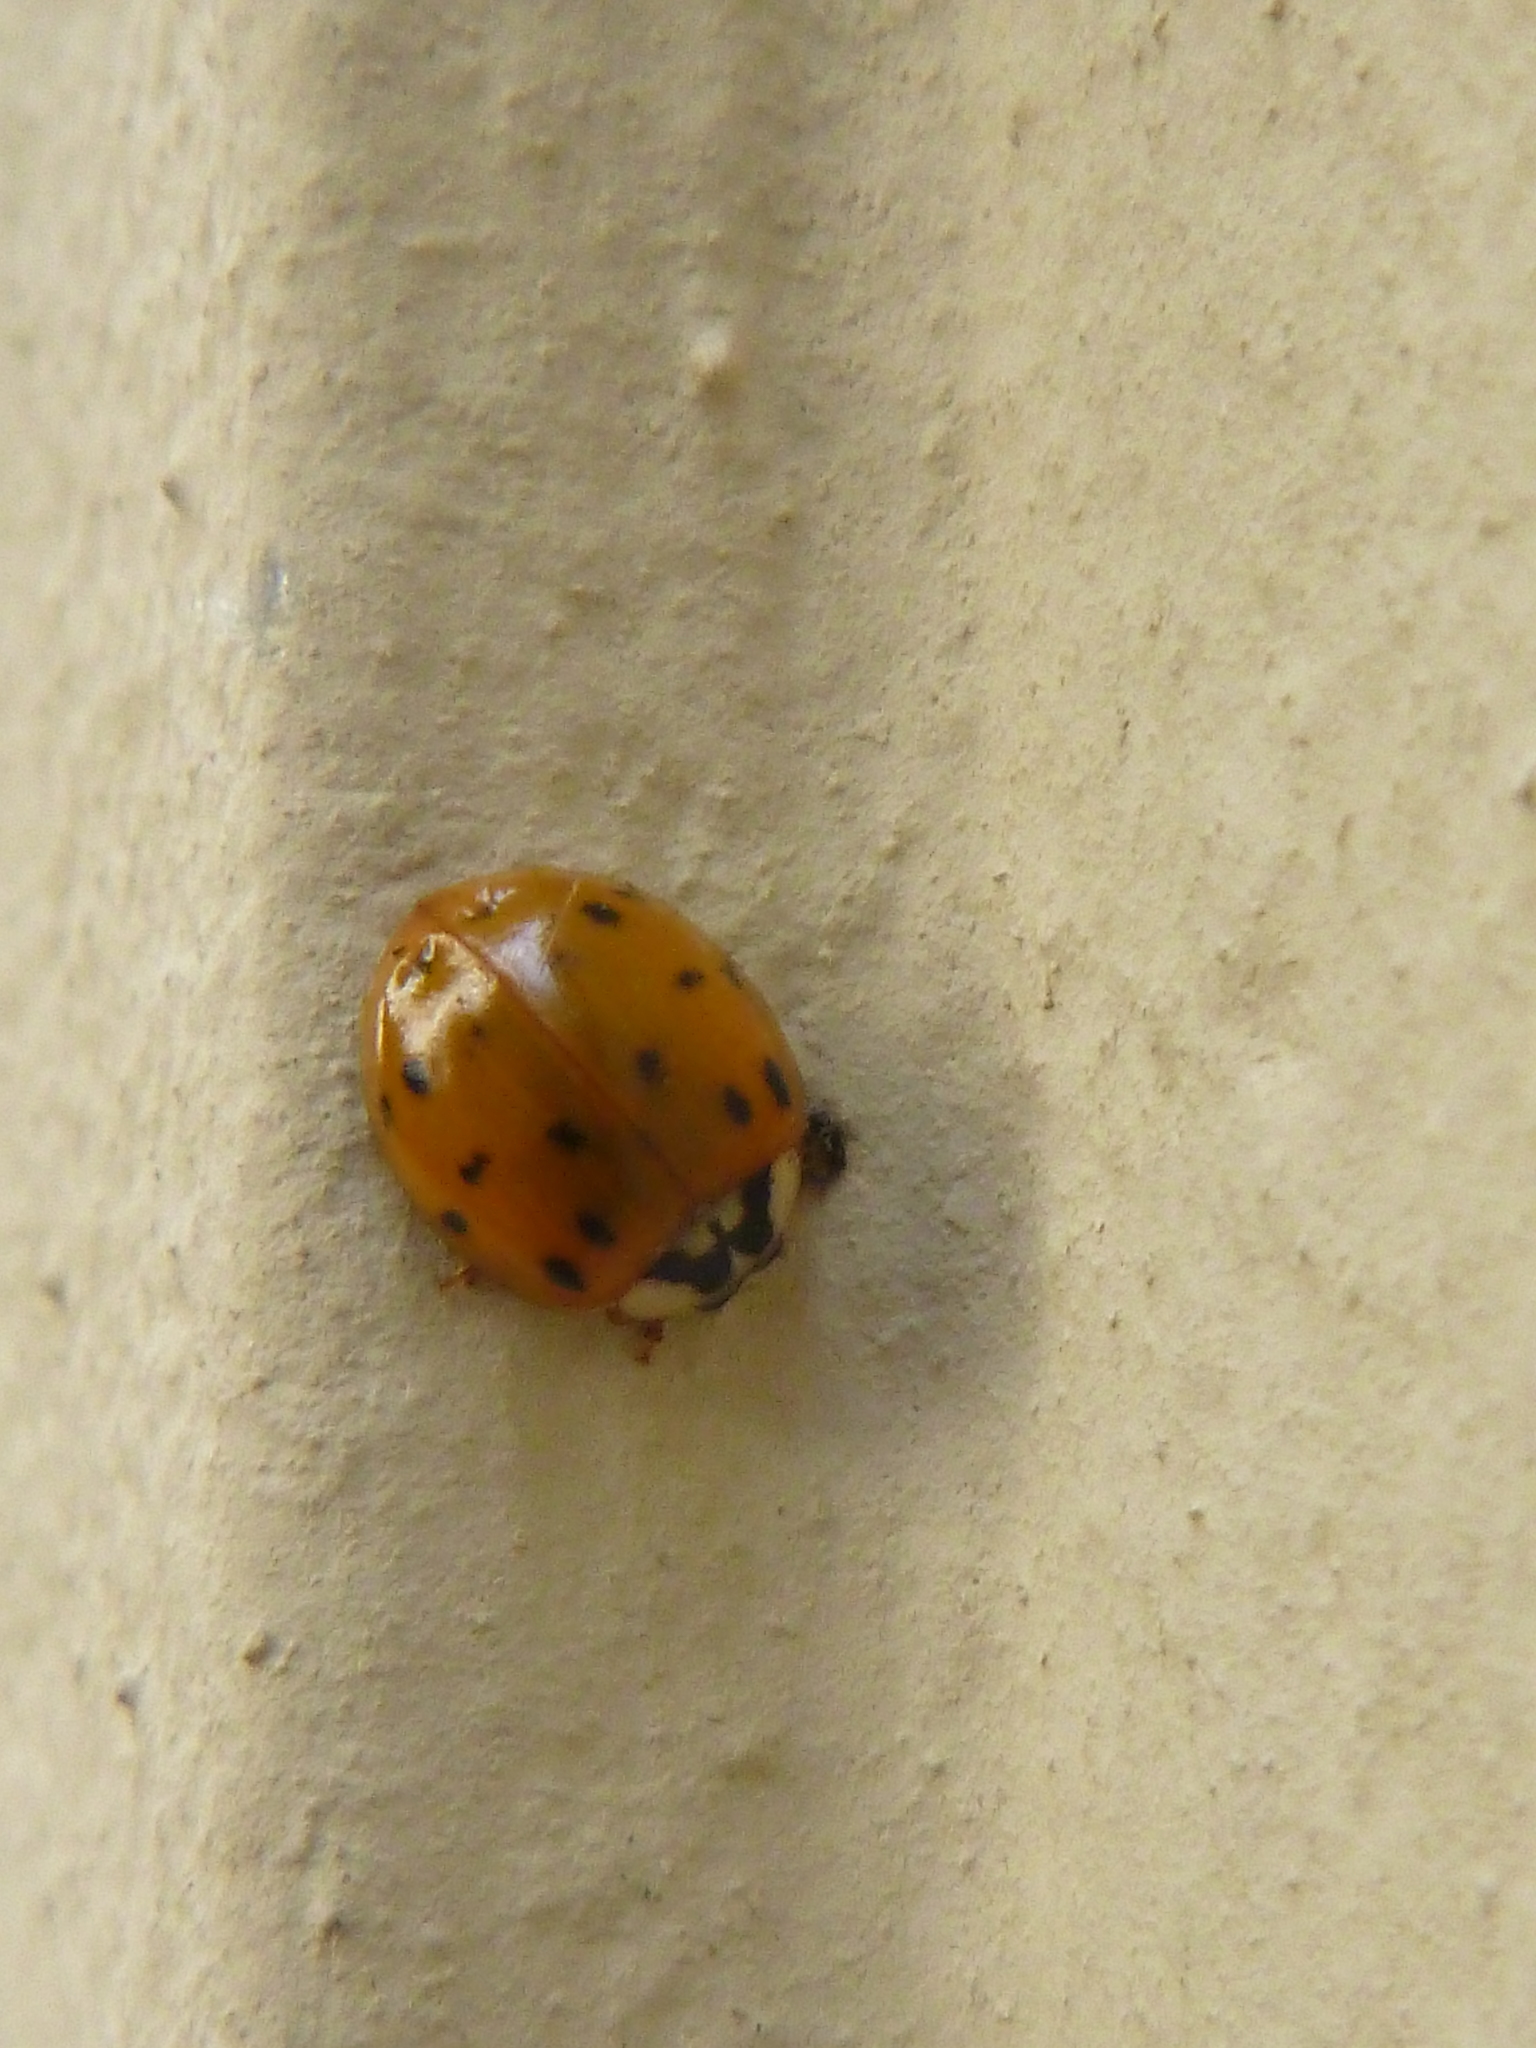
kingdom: Animalia
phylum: Arthropoda
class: Insecta
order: Coleoptera
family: Coccinellidae
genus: Harmonia
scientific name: Harmonia axyridis
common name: Harlequin ladybird
